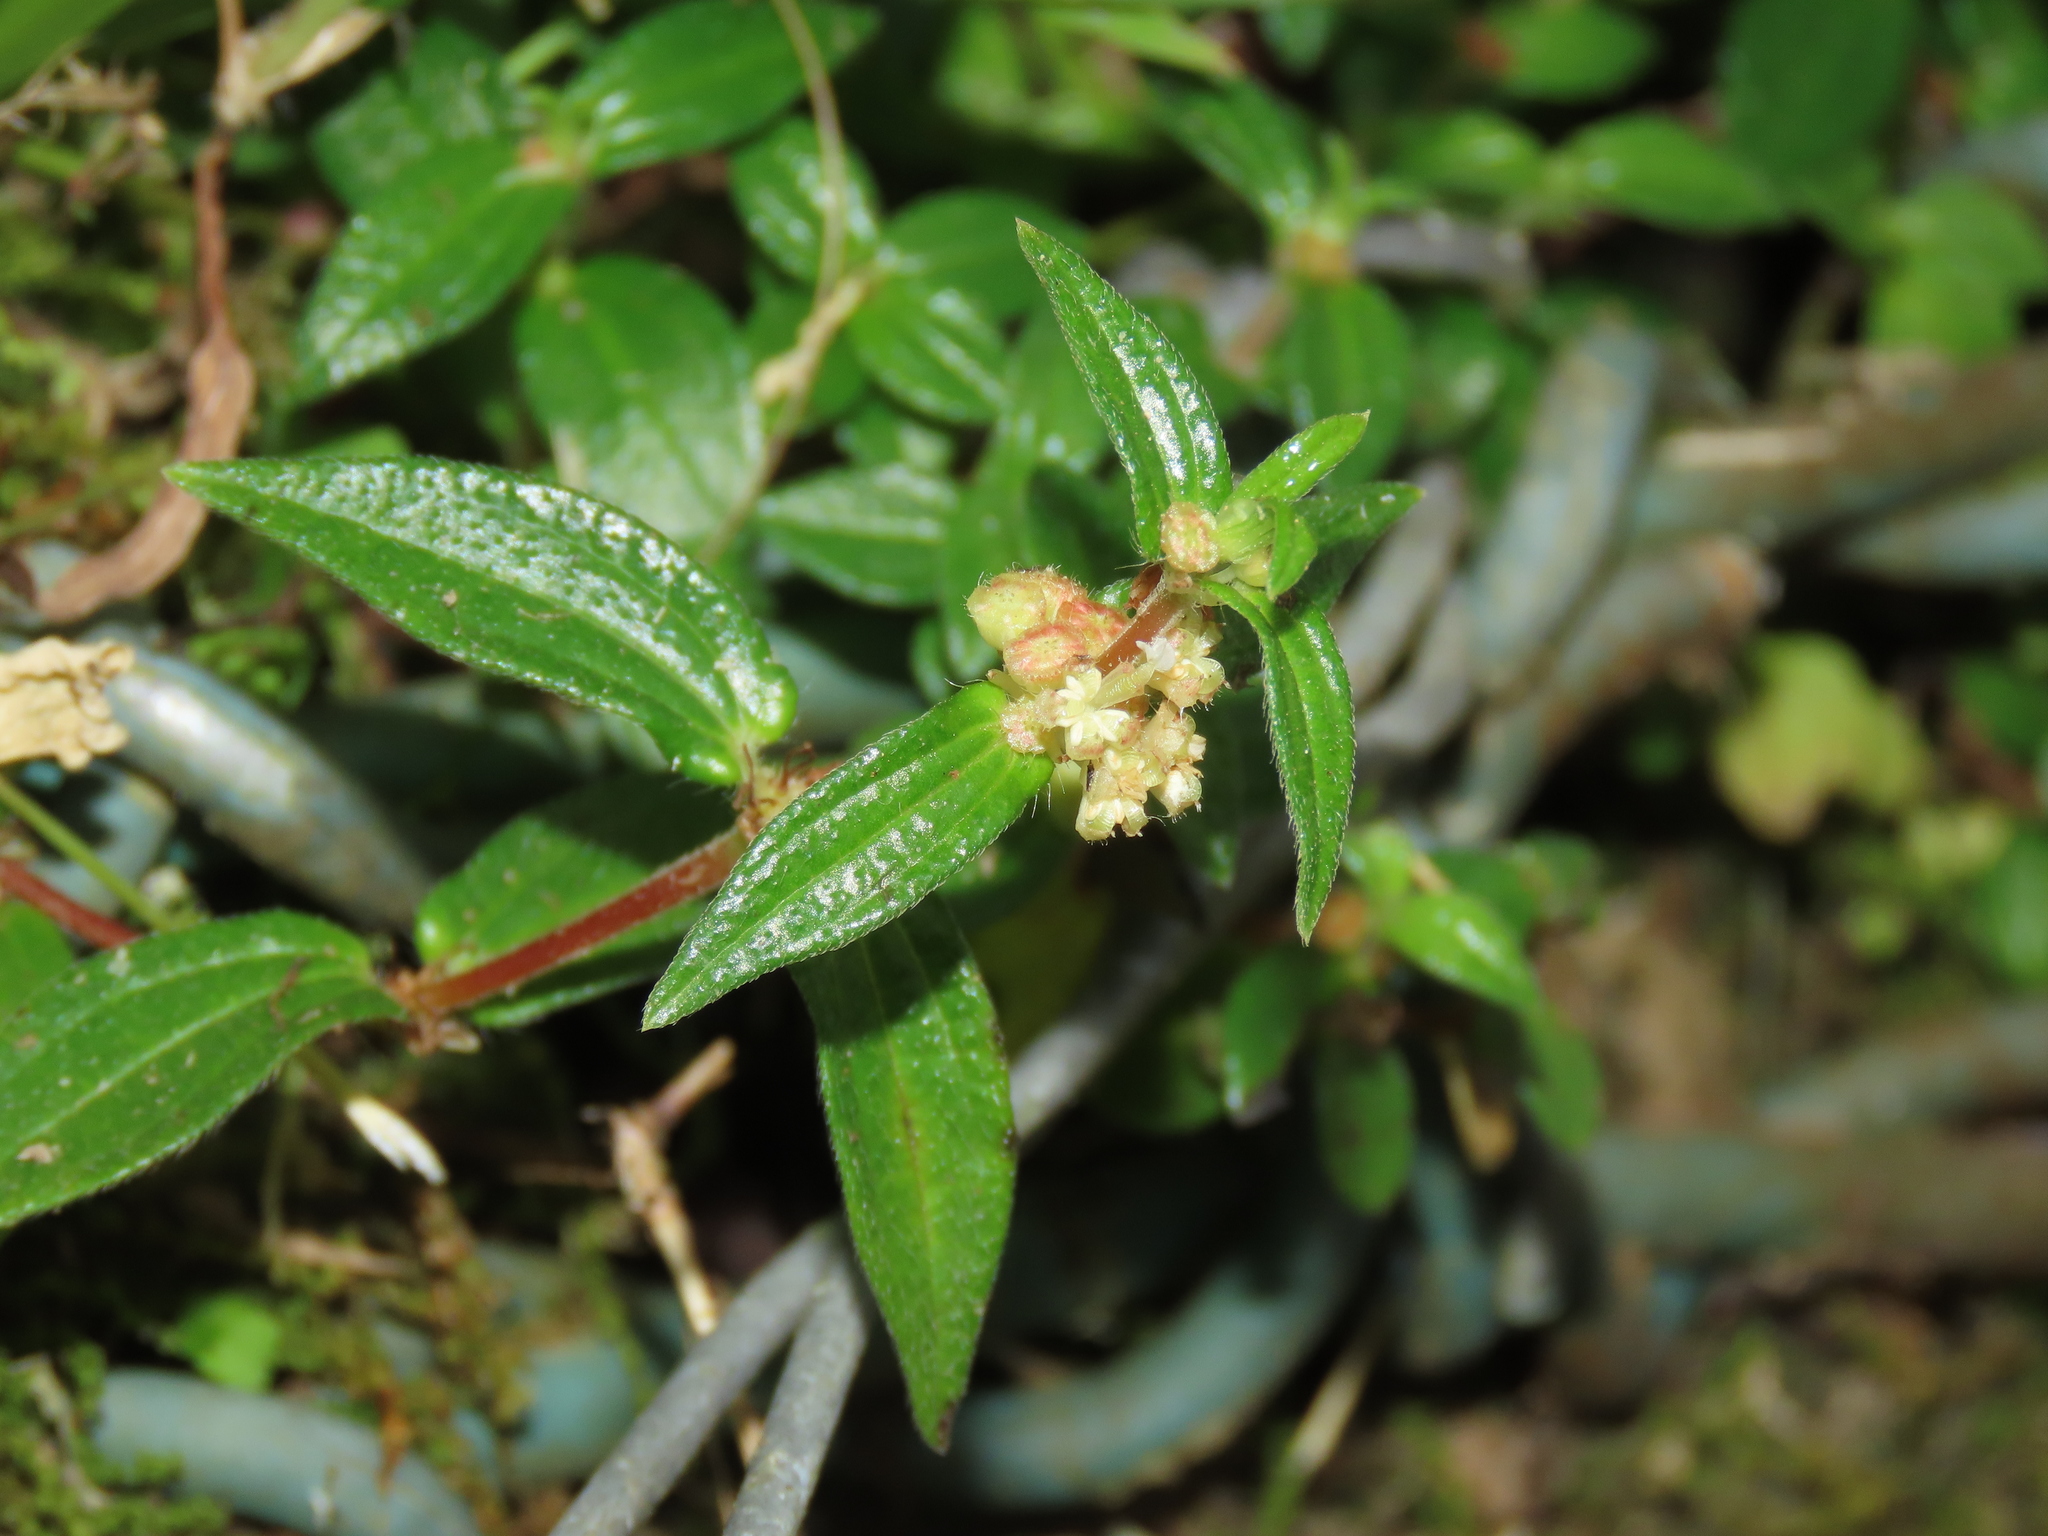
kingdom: Plantae
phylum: Tracheophyta
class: Magnoliopsida
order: Rosales
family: Urticaceae
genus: Gonostegia
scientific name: Gonostegia triandra
